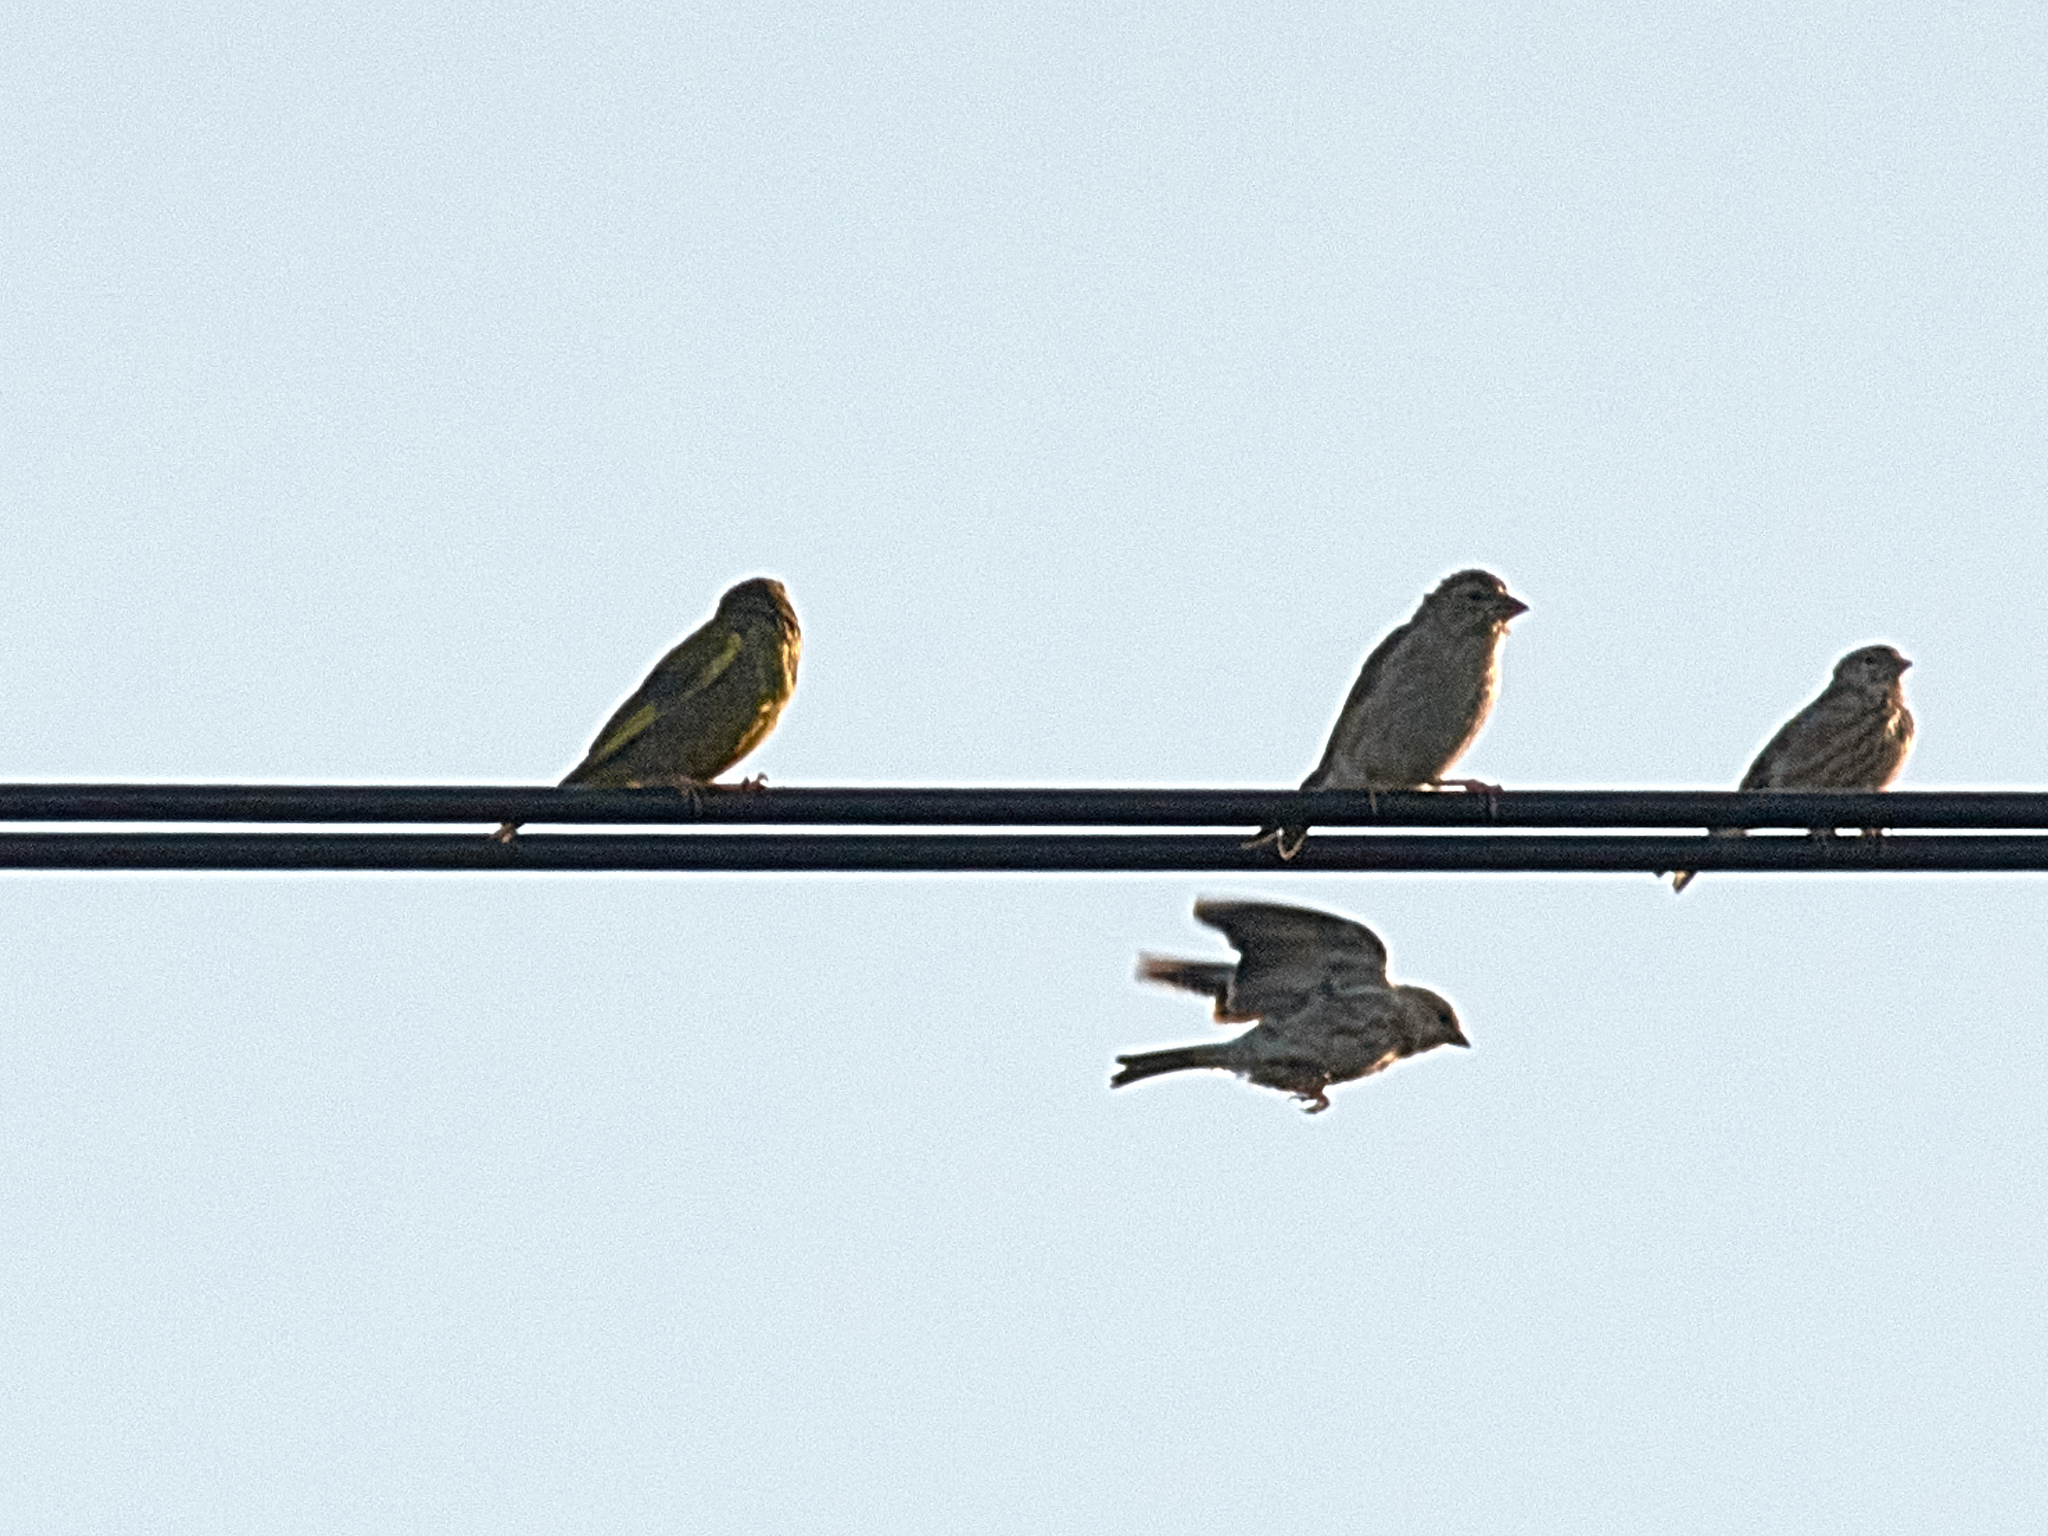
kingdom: Plantae
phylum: Tracheophyta
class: Liliopsida
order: Poales
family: Poaceae
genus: Chloris
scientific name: Chloris chloris
